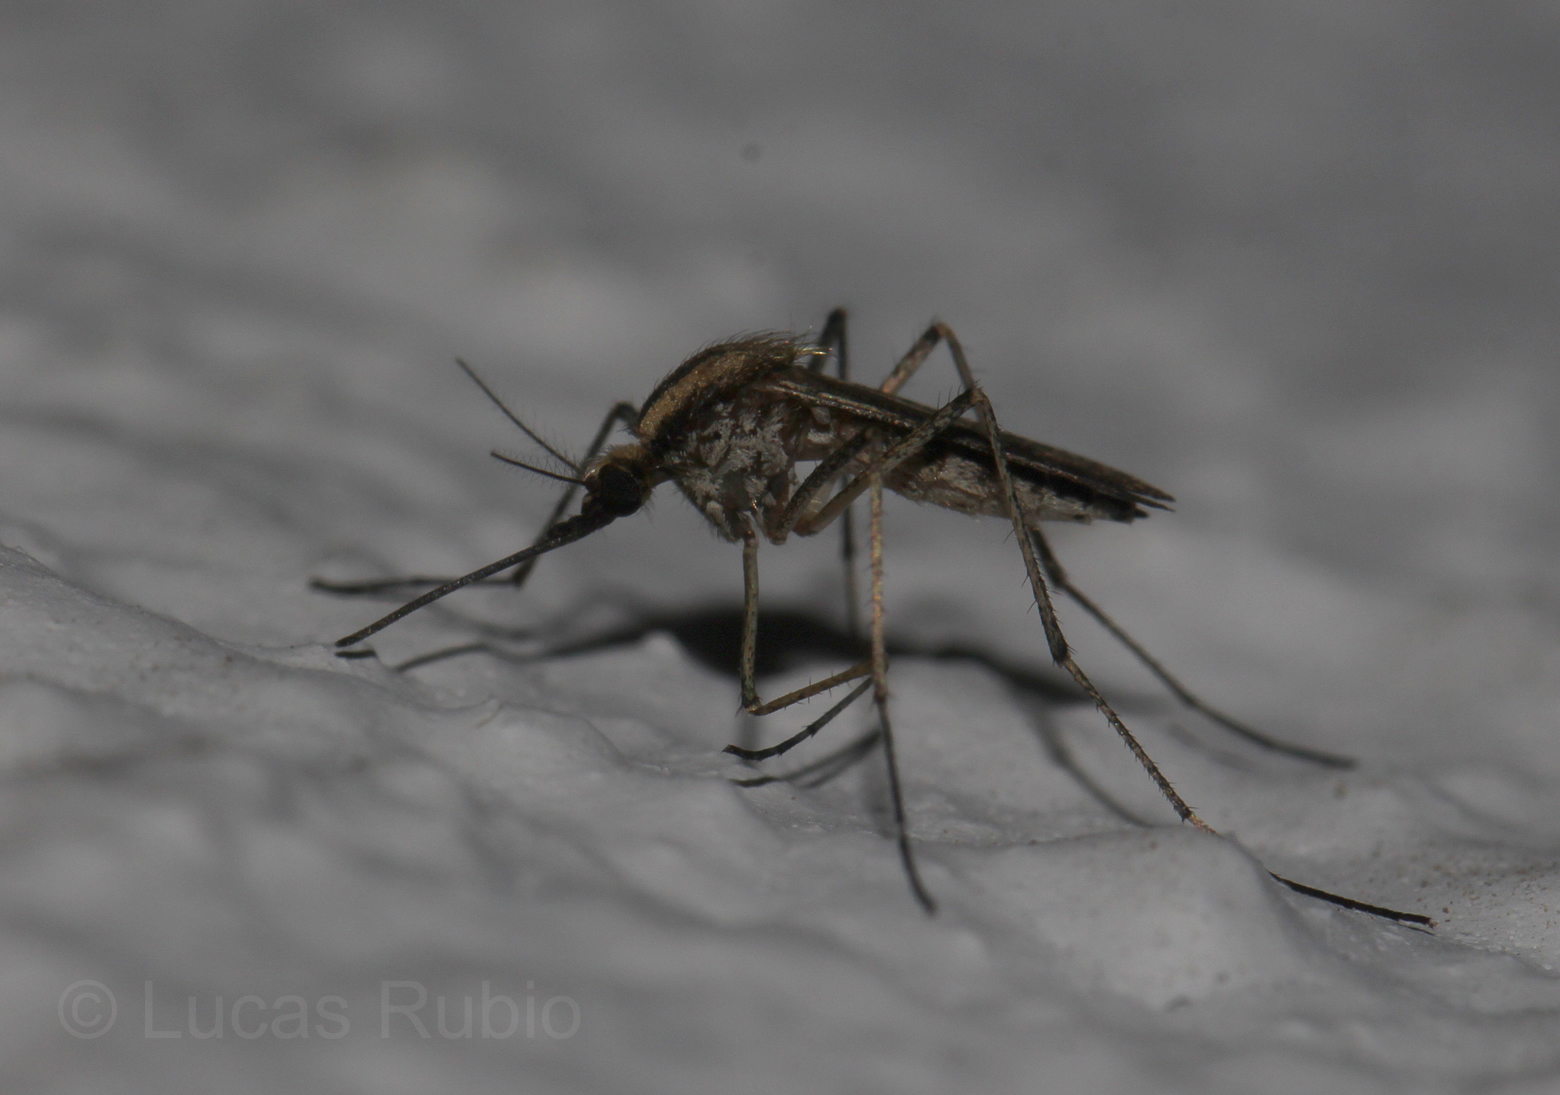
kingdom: Animalia
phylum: Arthropoda
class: Insecta
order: Diptera
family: Culicidae
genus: Aedes
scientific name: Aedes albifasciatus
